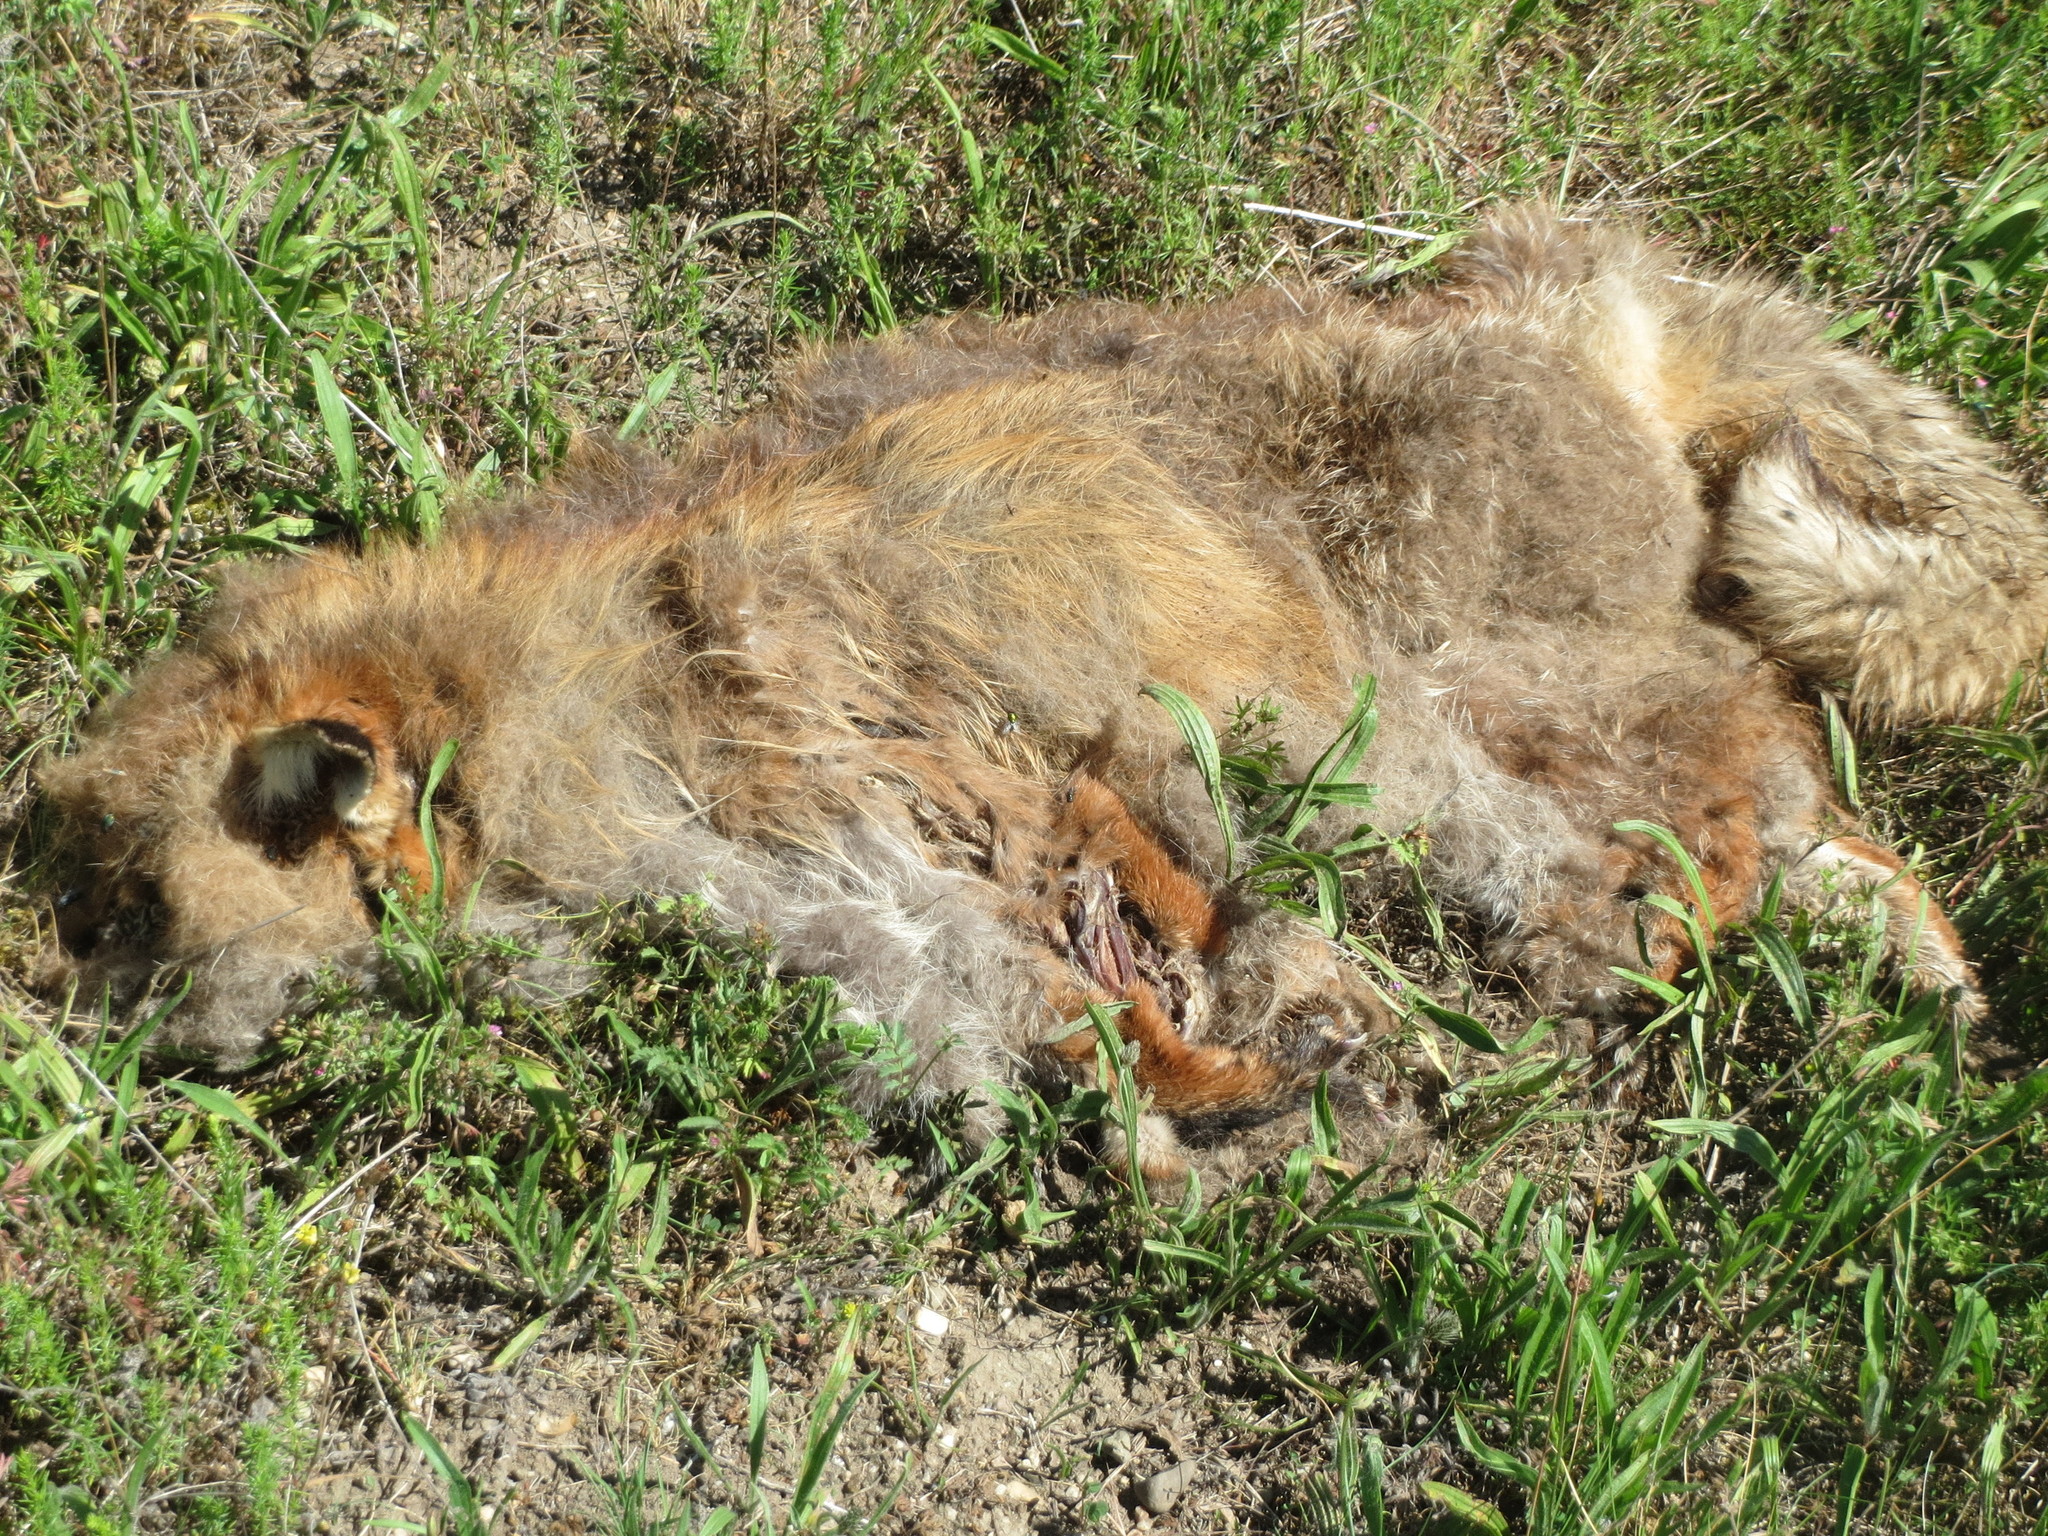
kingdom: Animalia
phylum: Chordata
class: Mammalia
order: Carnivora
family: Canidae
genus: Vulpes
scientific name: Vulpes vulpes
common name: Red fox
